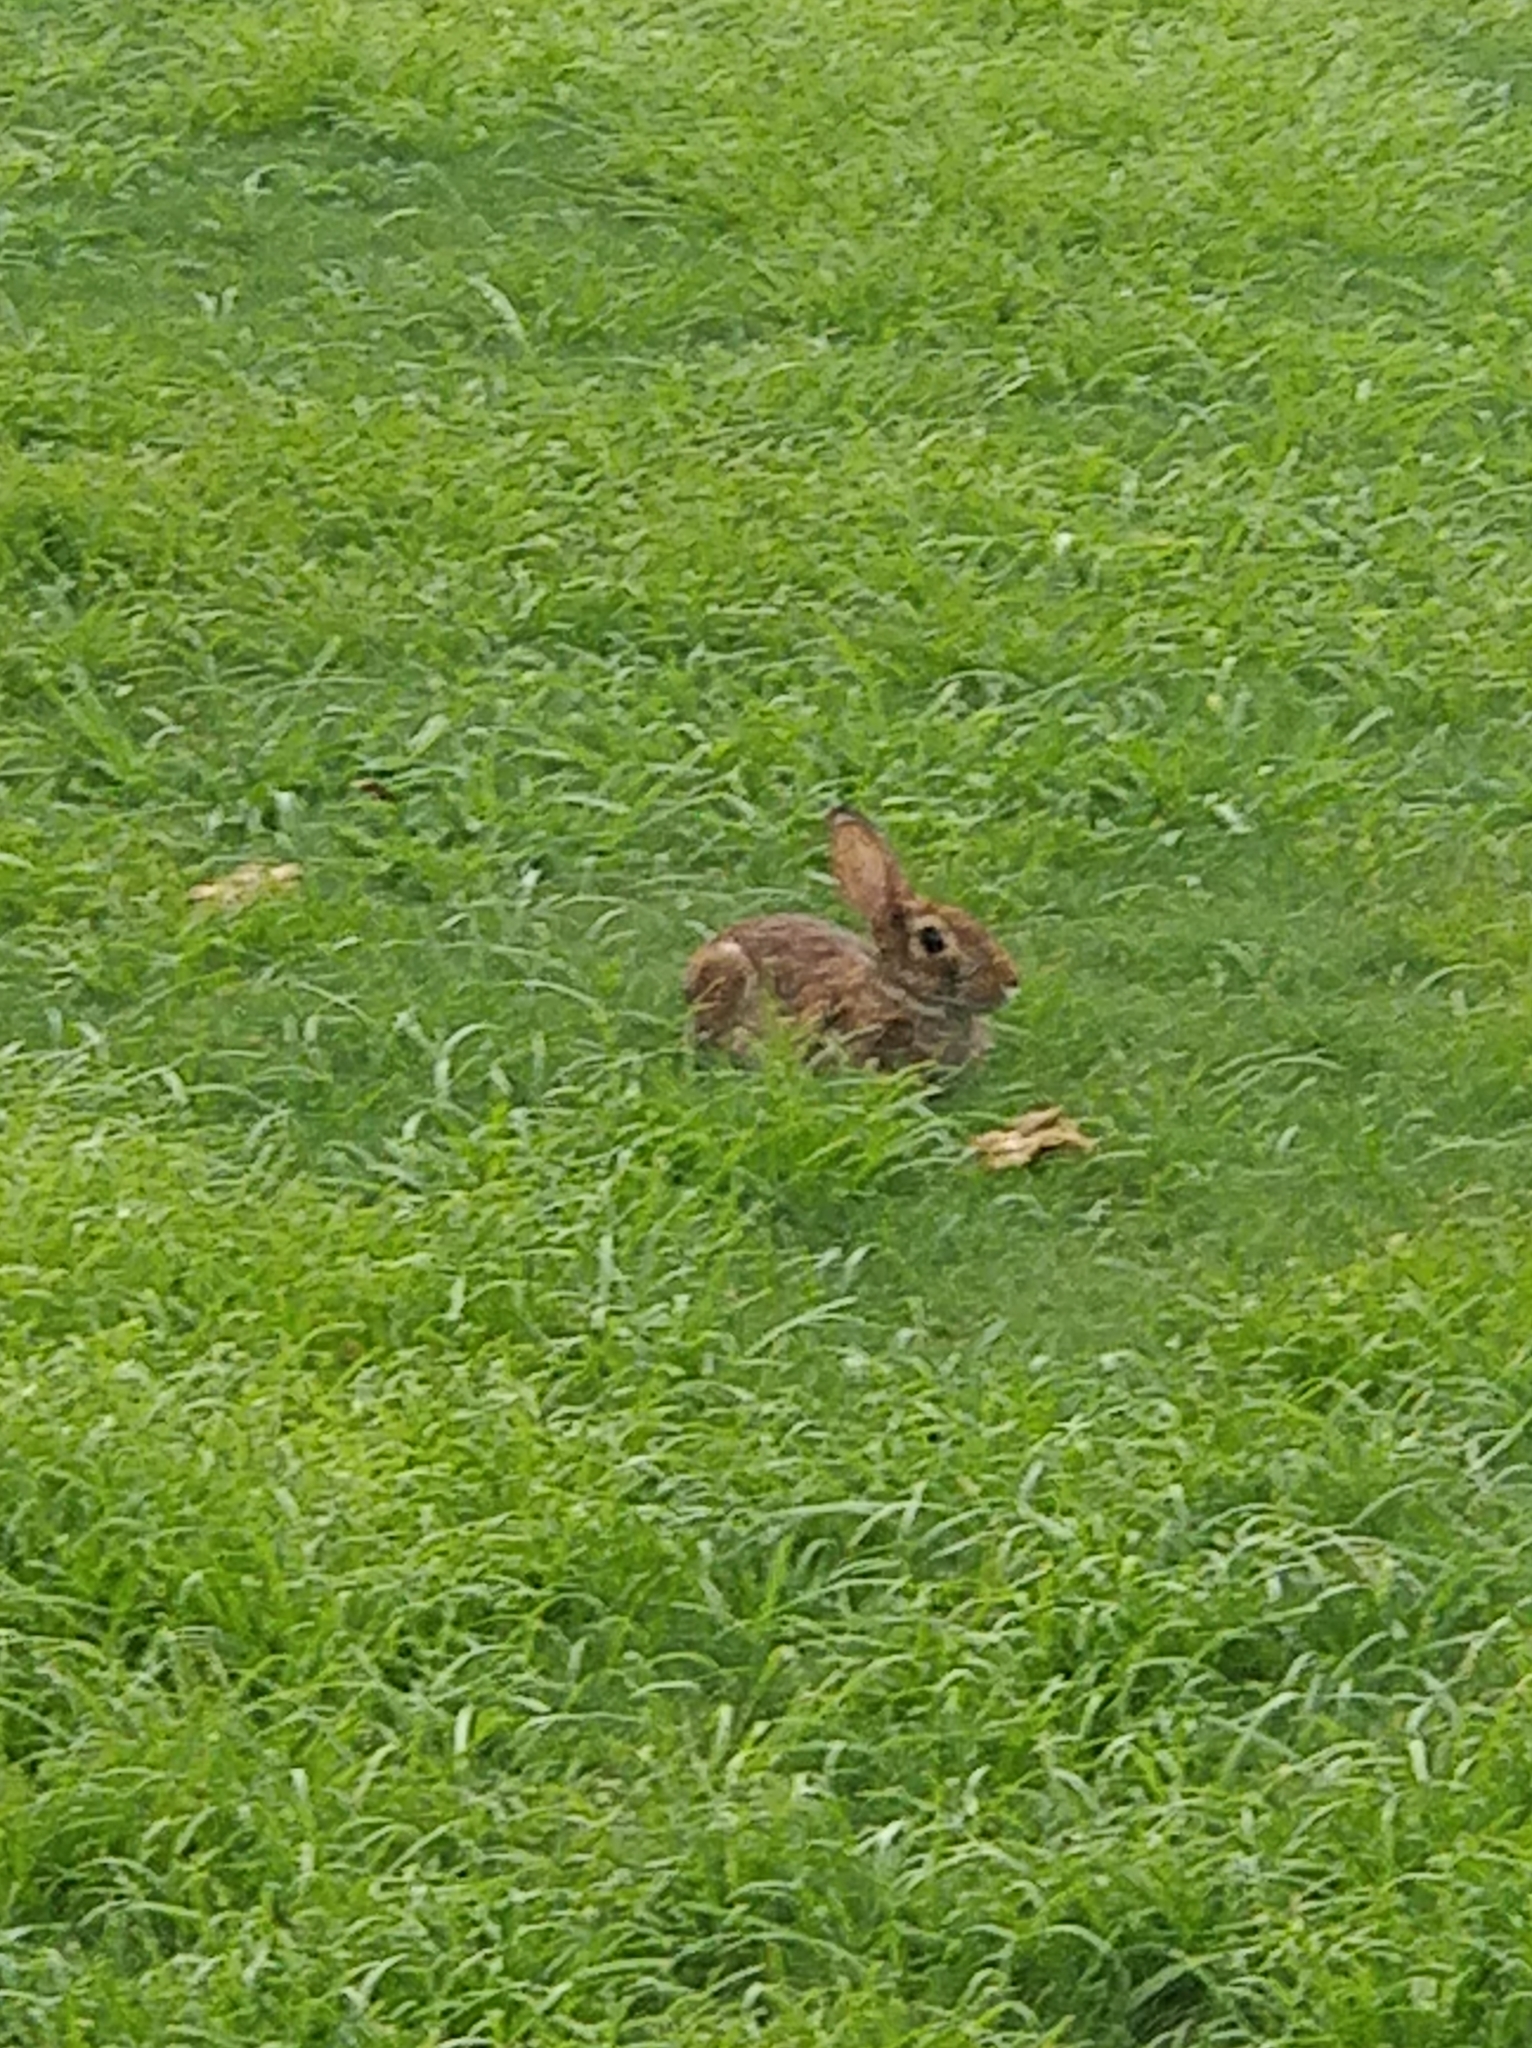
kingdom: Animalia
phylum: Chordata
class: Mammalia
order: Lagomorpha
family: Leporidae
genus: Sylvilagus
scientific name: Sylvilagus floridanus
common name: Eastern cottontail
